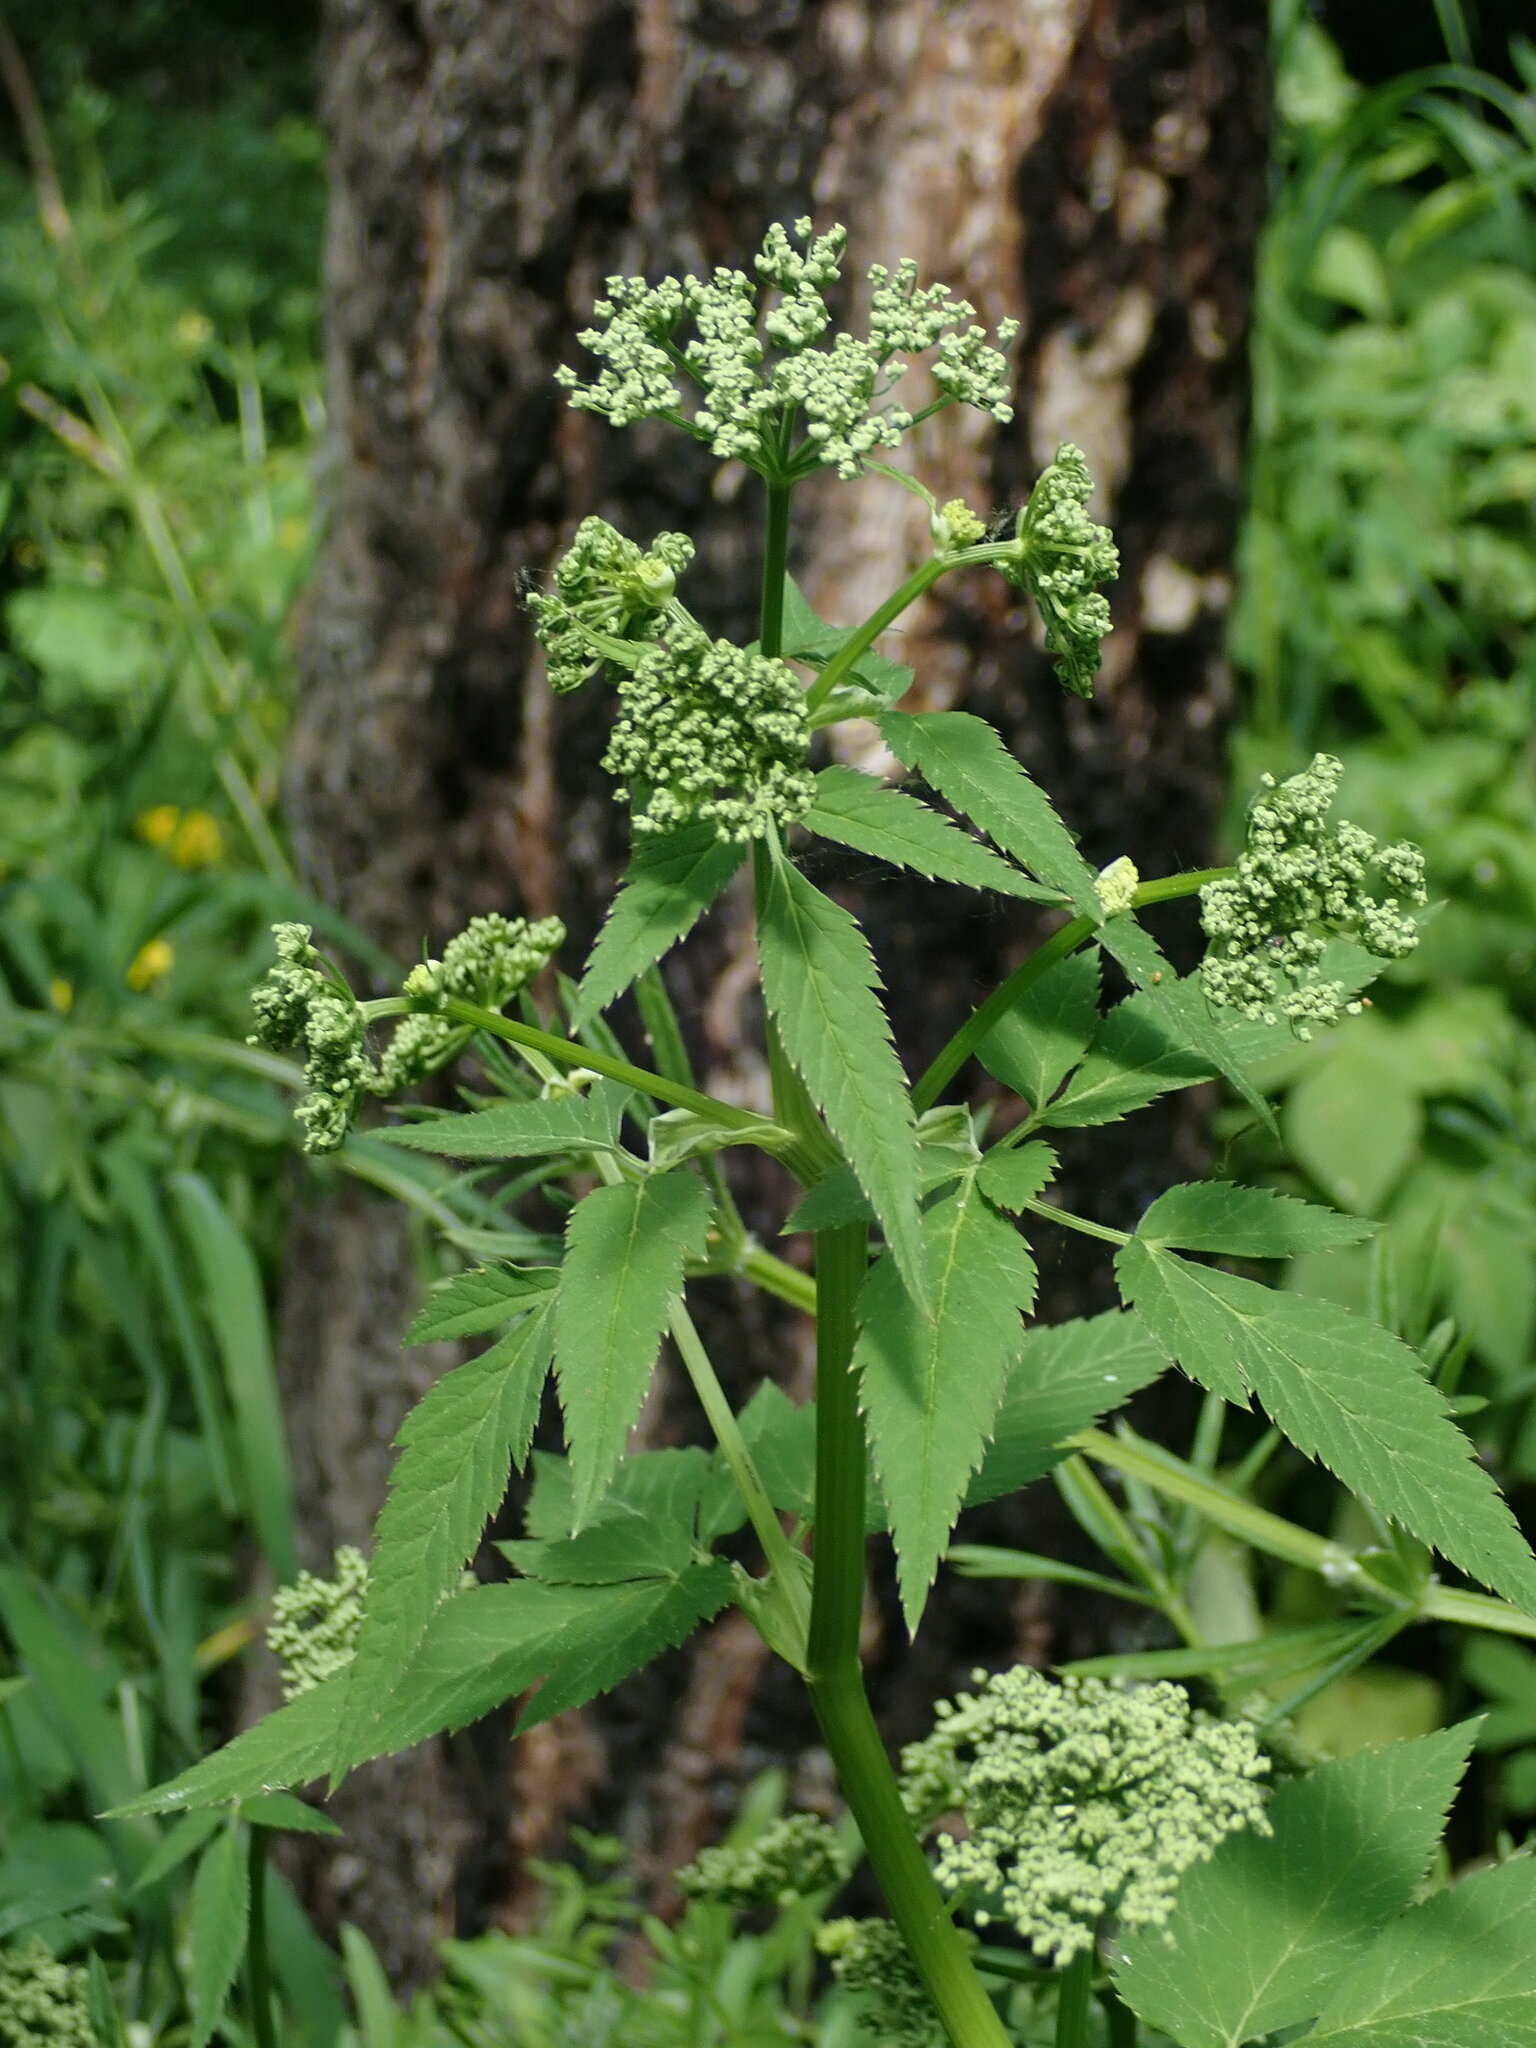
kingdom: Plantae
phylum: Tracheophyta
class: Magnoliopsida
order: Apiales
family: Apiaceae
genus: Aegopodium
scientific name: Aegopodium podagraria
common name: Ground-elder
